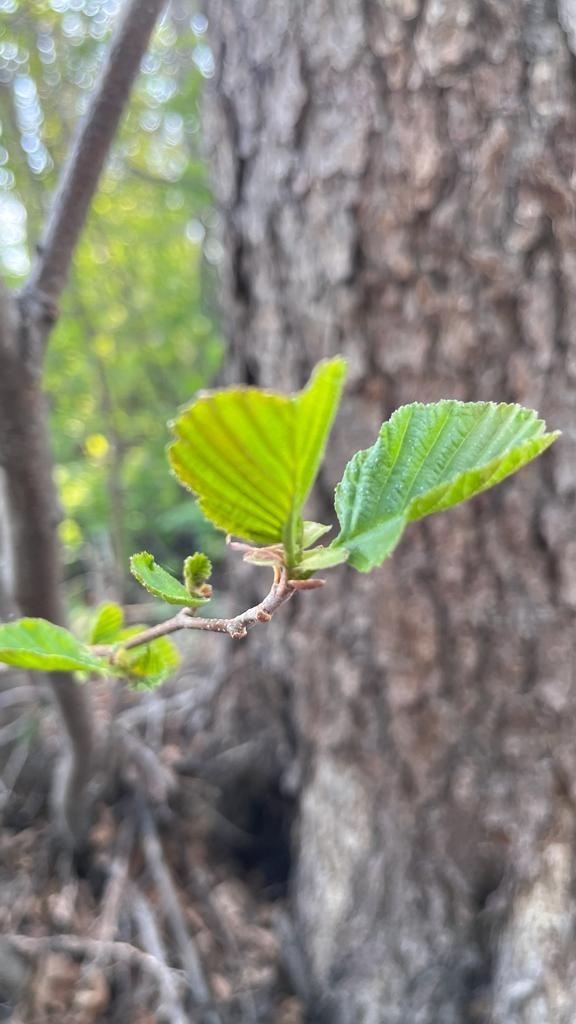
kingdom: Plantae
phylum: Tracheophyta
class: Magnoliopsida
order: Fagales
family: Betulaceae
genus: Alnus
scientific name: Alnus glutinosa
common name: Black alder
